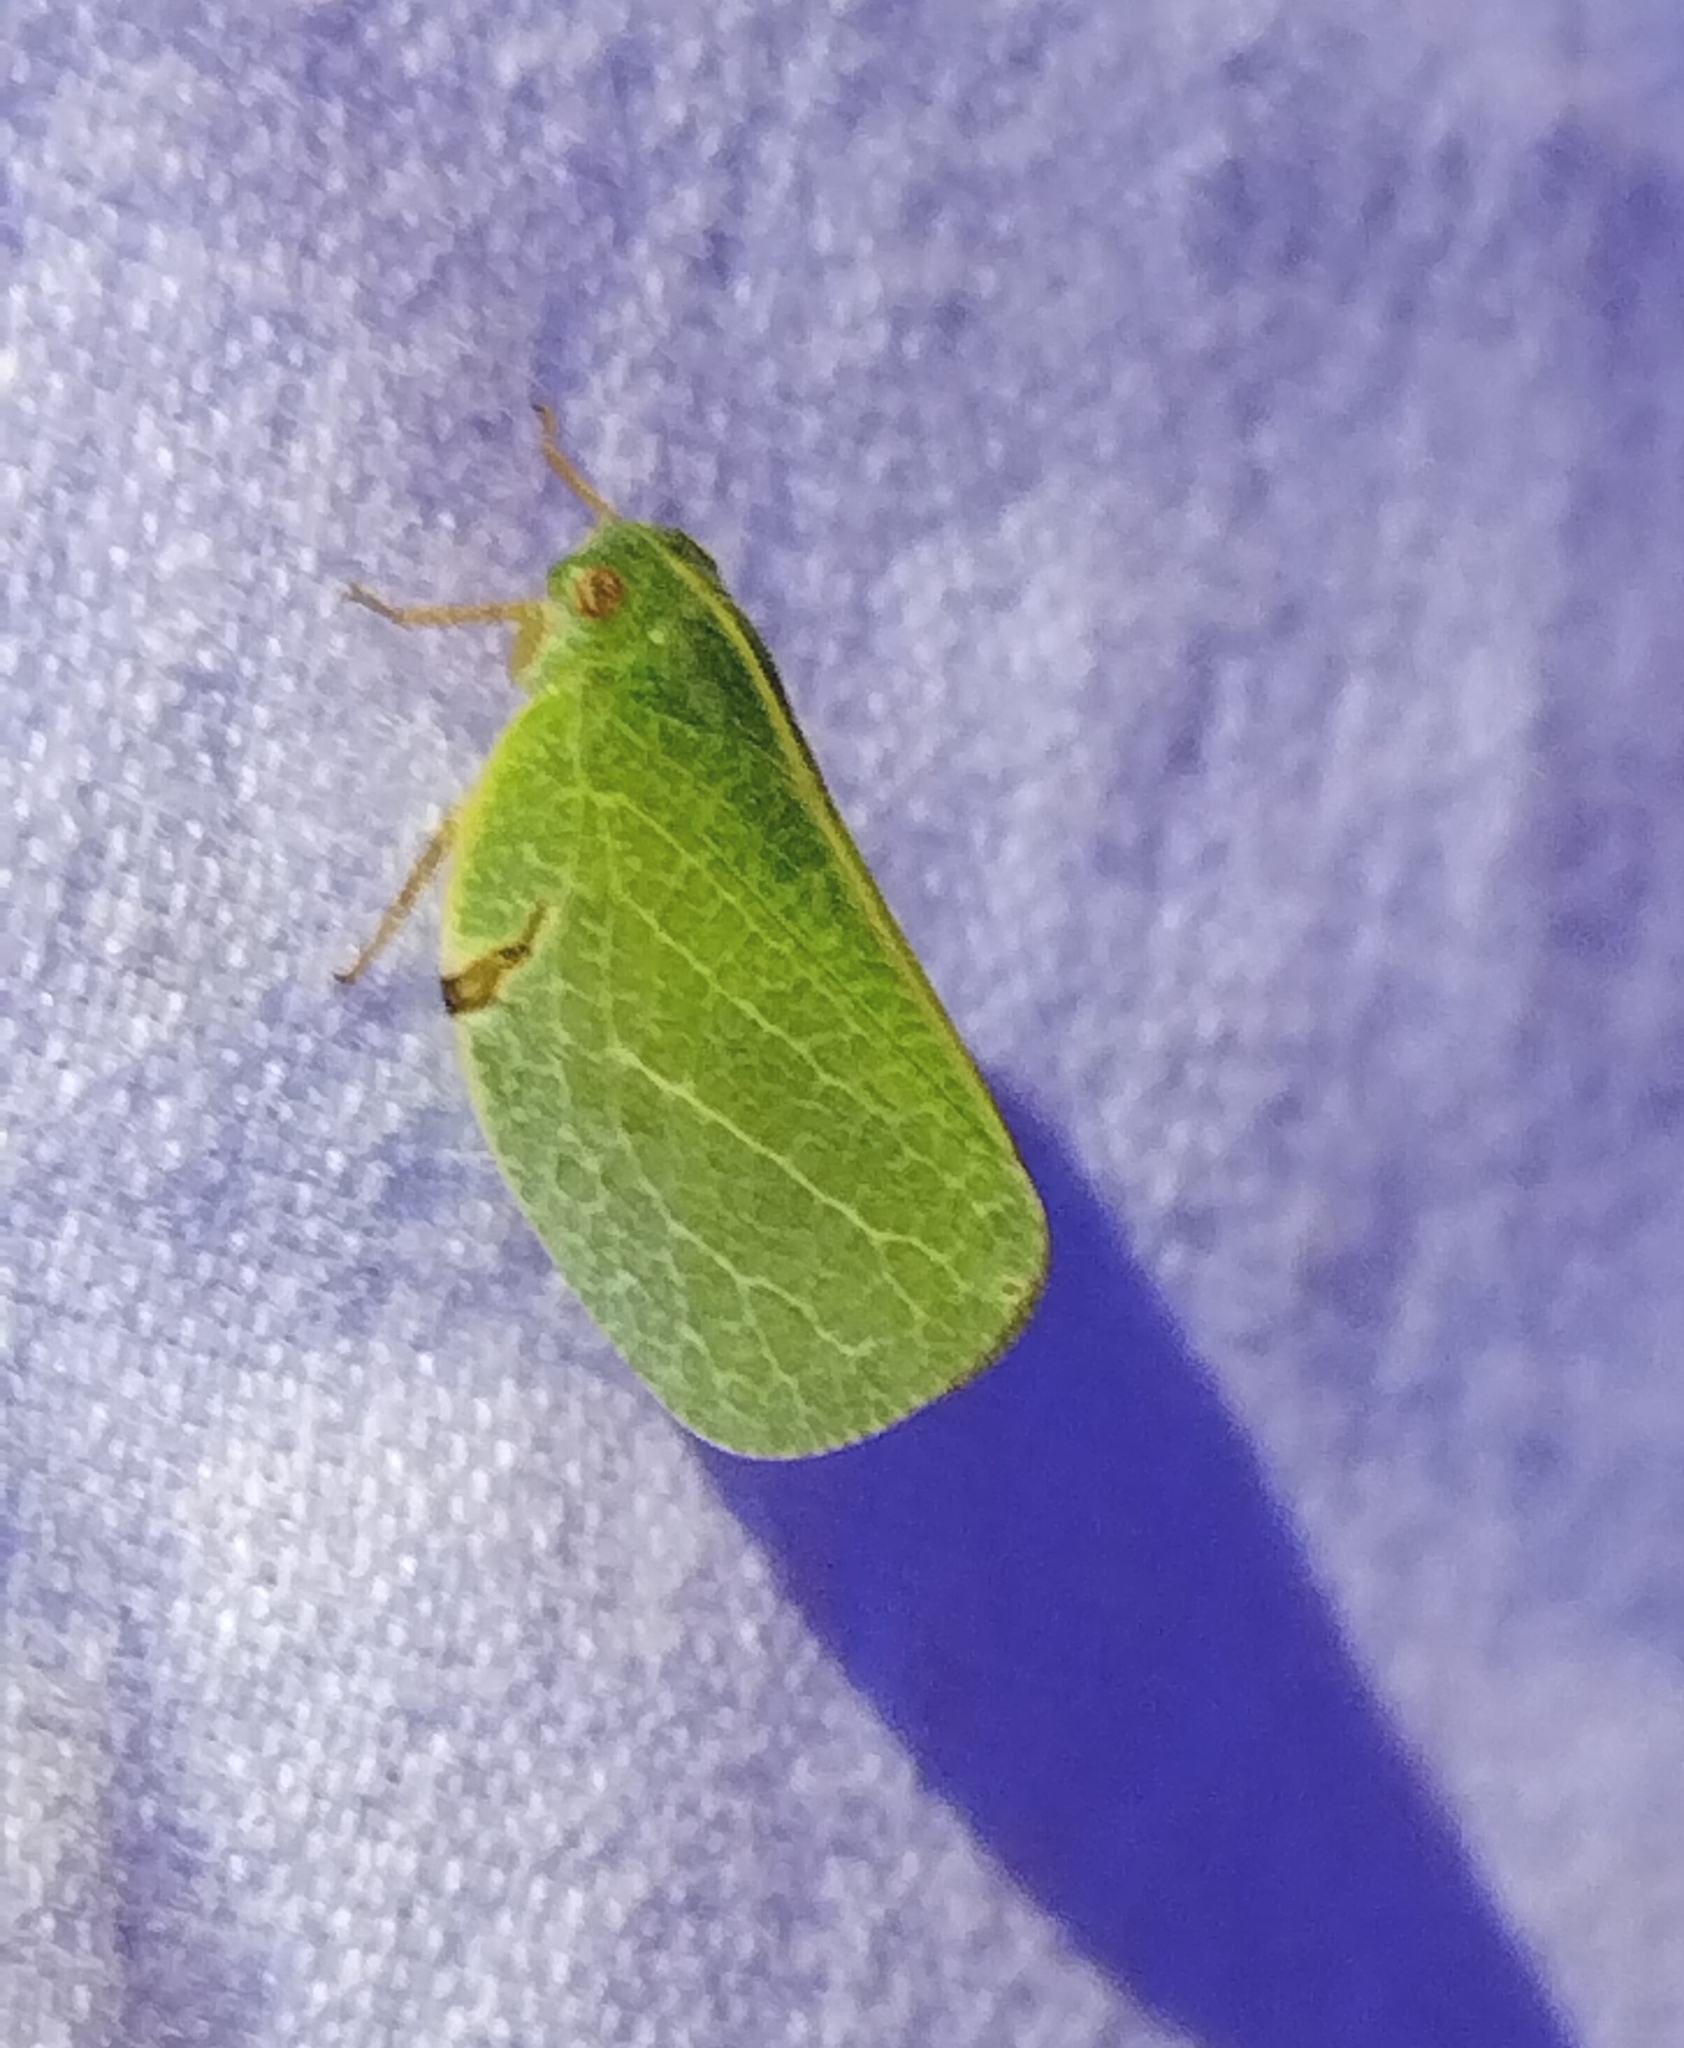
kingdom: Animalia
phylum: Arthropoda
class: Insecta
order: Hemiptera
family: Acanaloniidae
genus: Acanalonia
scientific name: Acanalonia servillei
